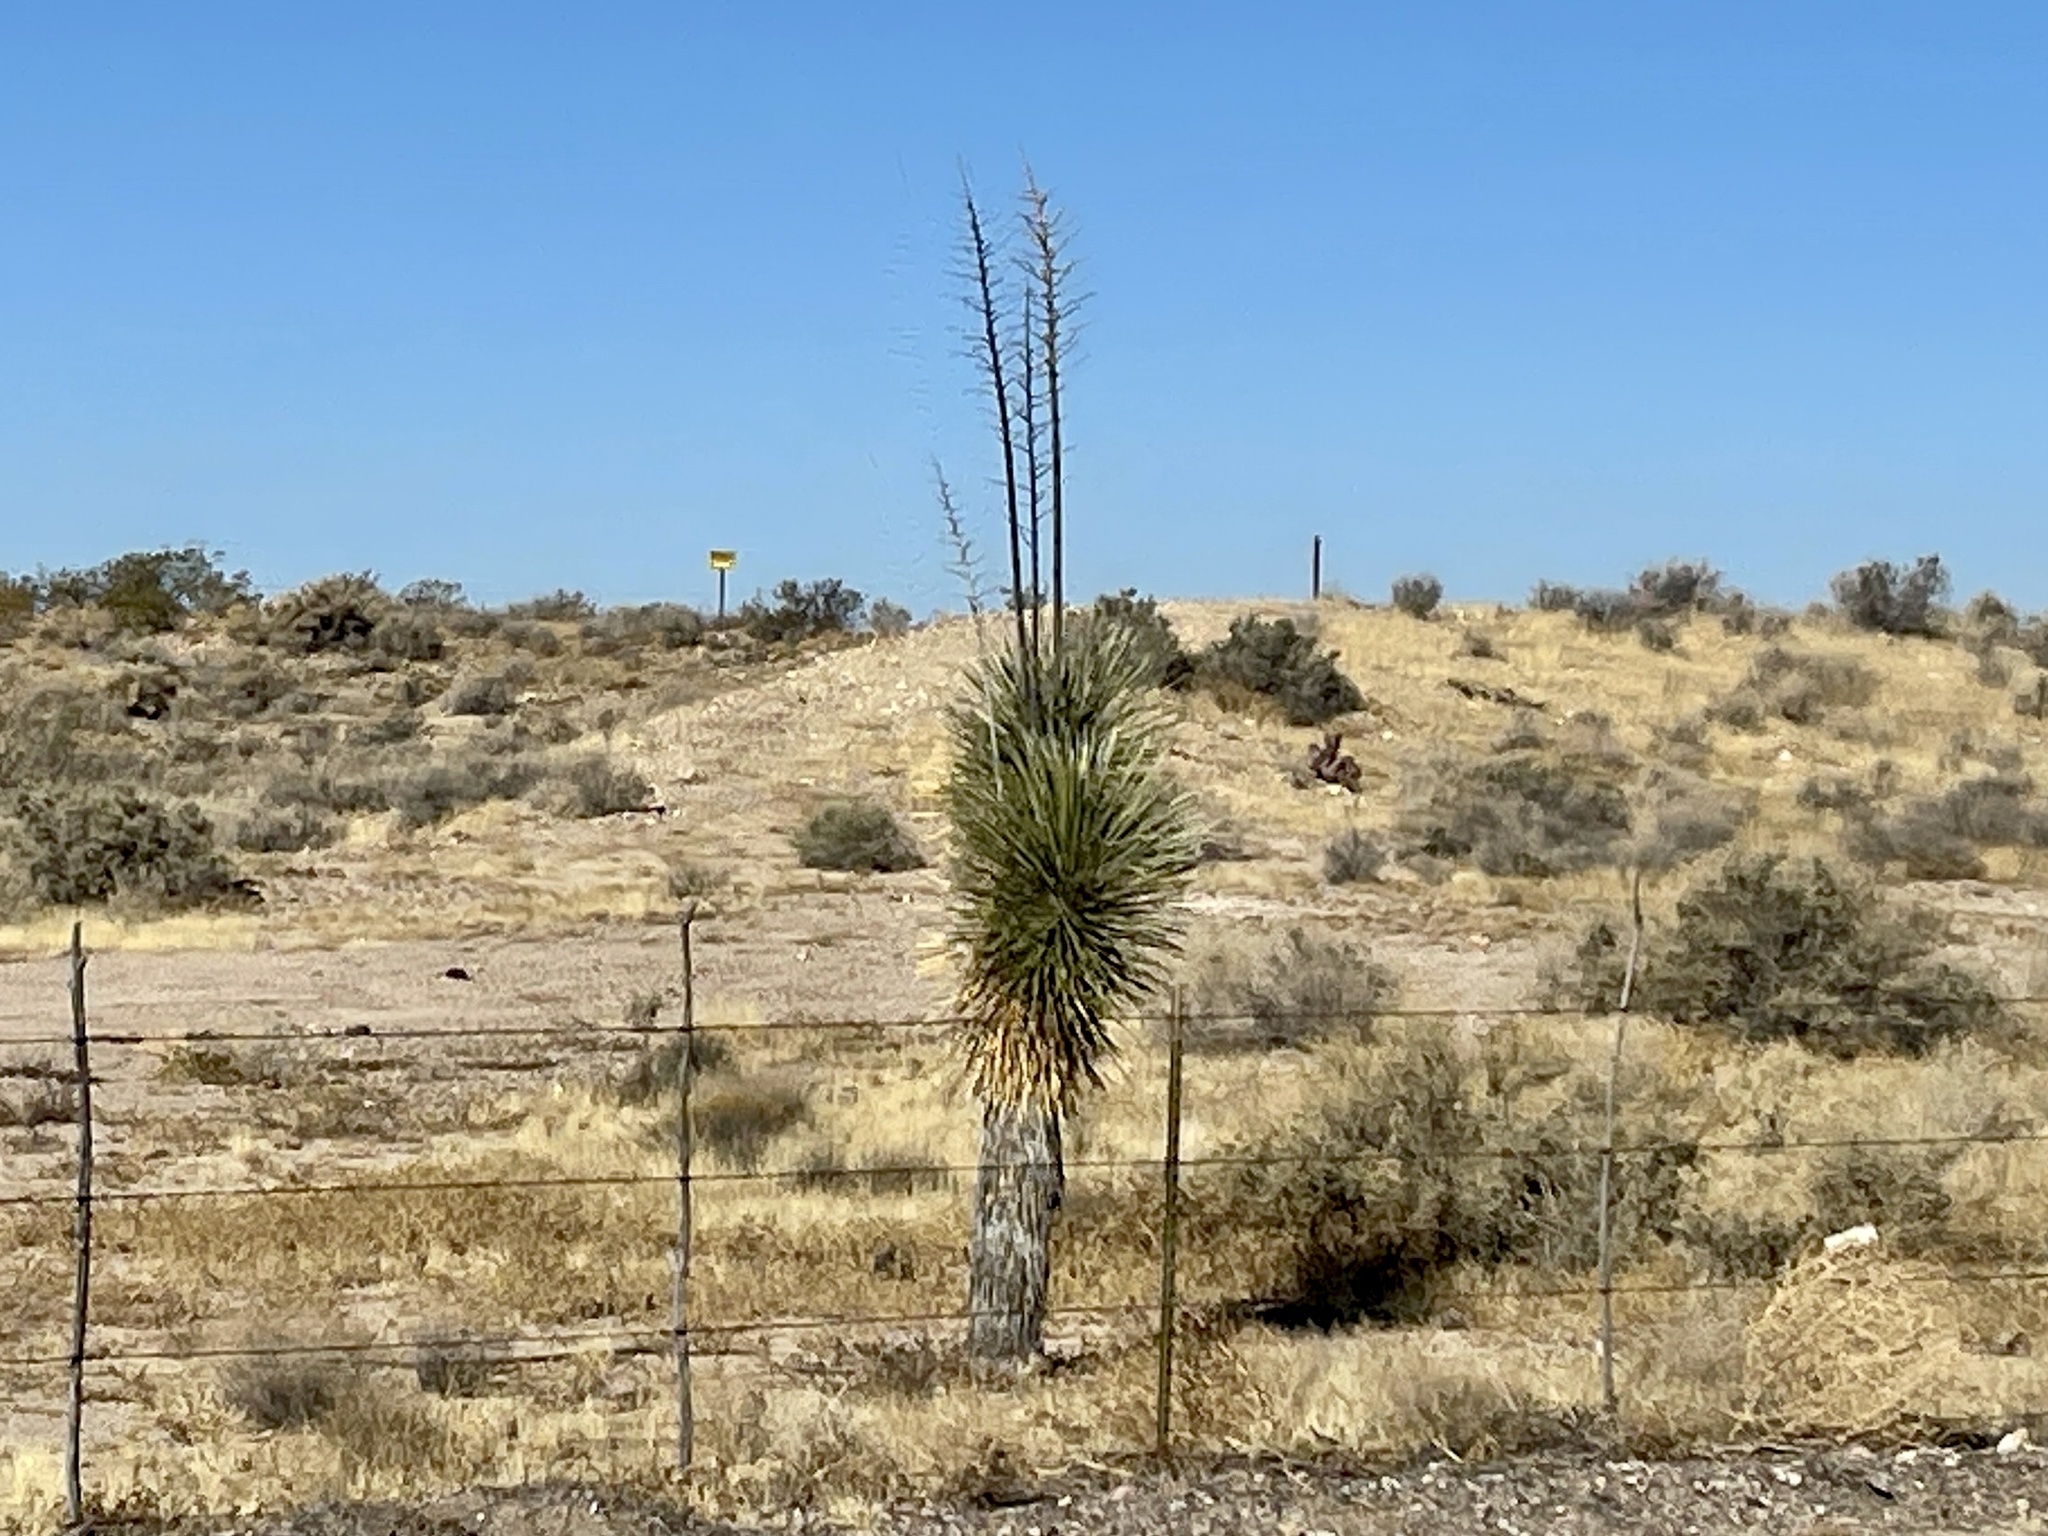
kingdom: Plantae
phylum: Tracheophyta
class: Liliopsida
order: Asparagales
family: Asparagaceae
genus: Yucca
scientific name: Yucca elata
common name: Palmella
